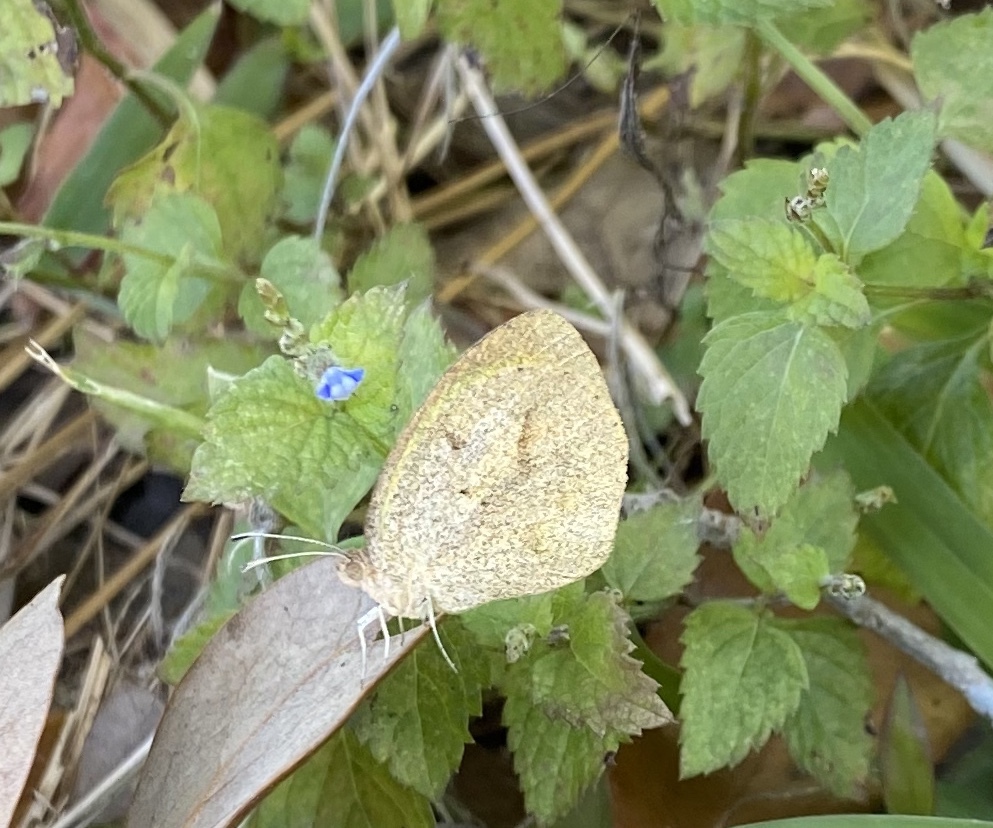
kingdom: Animalia
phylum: Arthropoda
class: Insecta
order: Lepidoptera
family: Pieridae
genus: Eurema
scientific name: Eurema daira
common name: Barred sulphur
